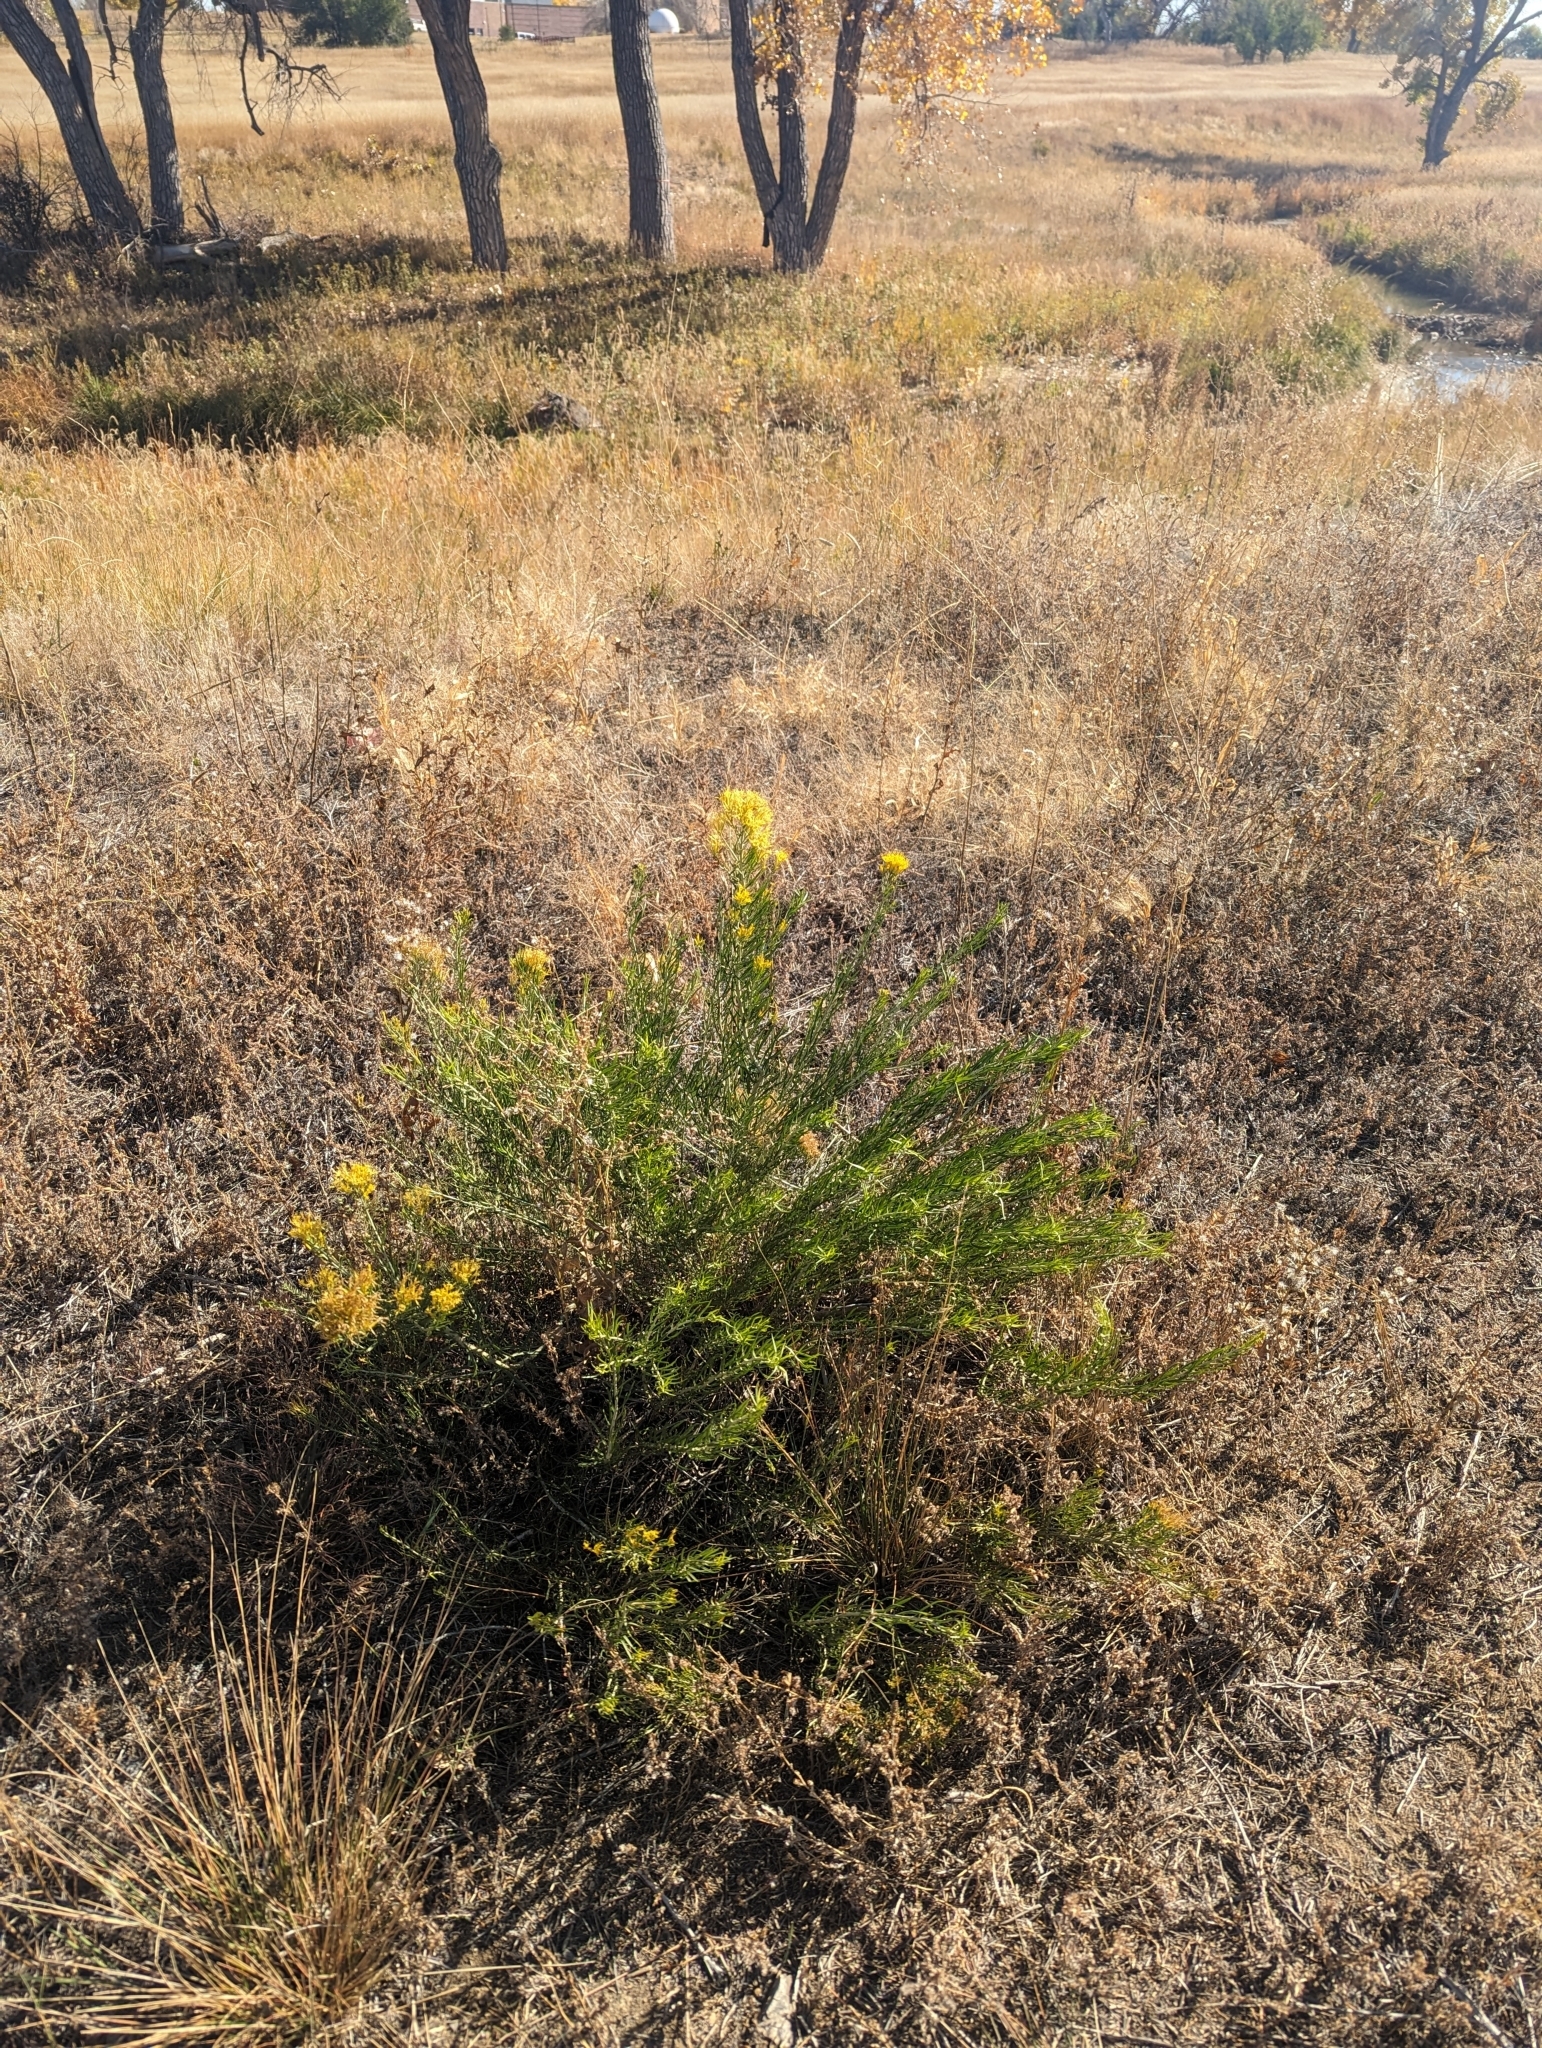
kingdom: Plantae
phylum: Tracheophyta
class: Magnoliopsida
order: Asterales
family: Asteraceae
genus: Ericameria
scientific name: Ericameria nauseosa
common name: Rubber rabbitbrush
